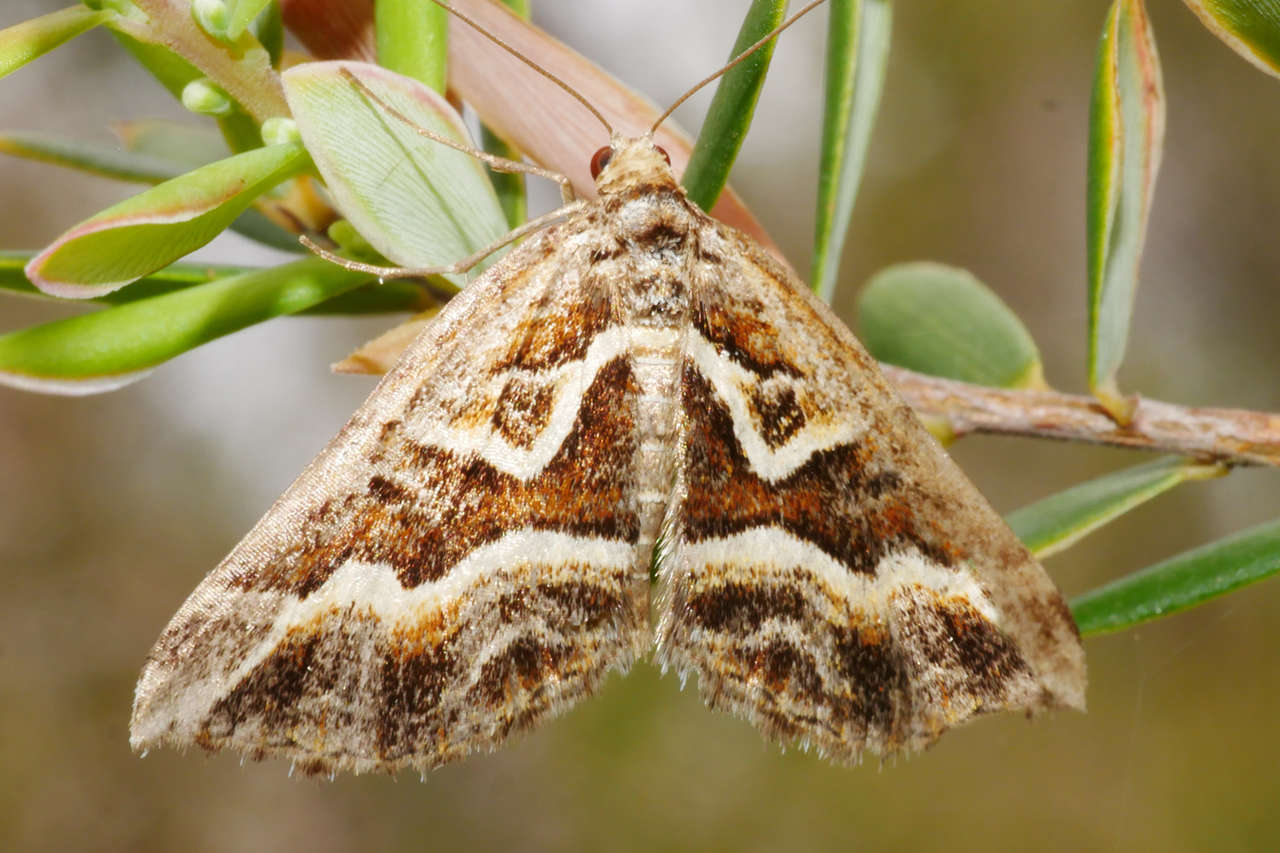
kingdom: Animalia
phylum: Arthropoda
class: Insecta
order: Lepidoptera
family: Geometridae
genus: Melitulias
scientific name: Melitulias graphicata
